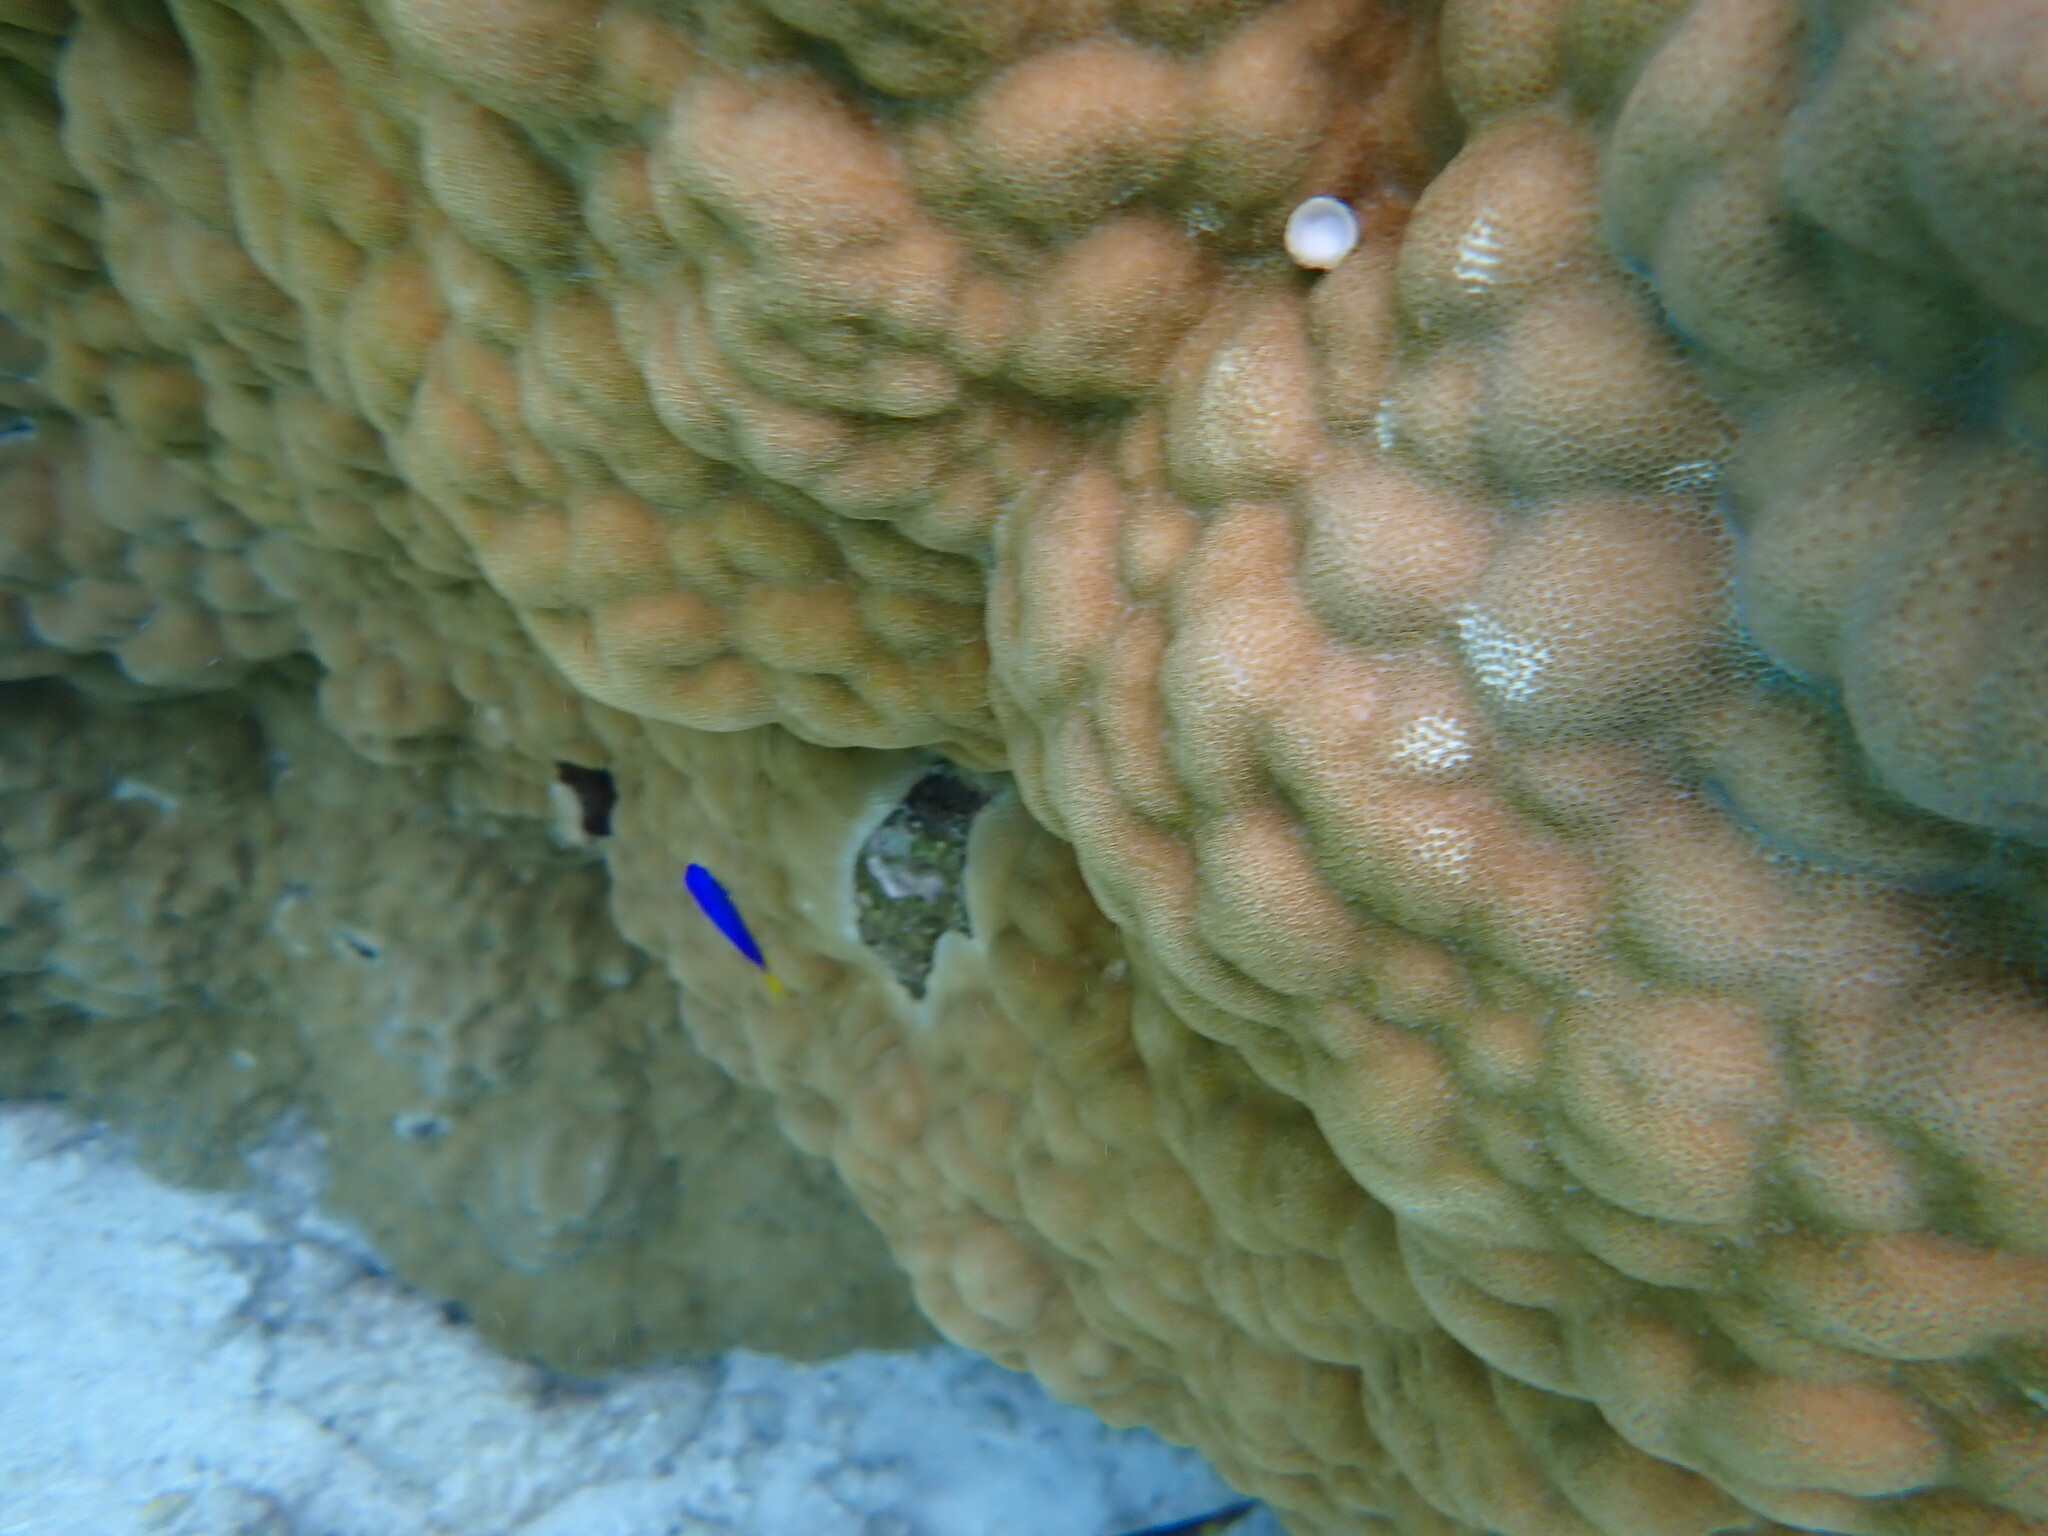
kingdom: Animalia
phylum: Chordata
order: Perciformes
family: Pomacentridae
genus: Pomacentrus
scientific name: Pomacentrus pavo
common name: Sapphire damsel
